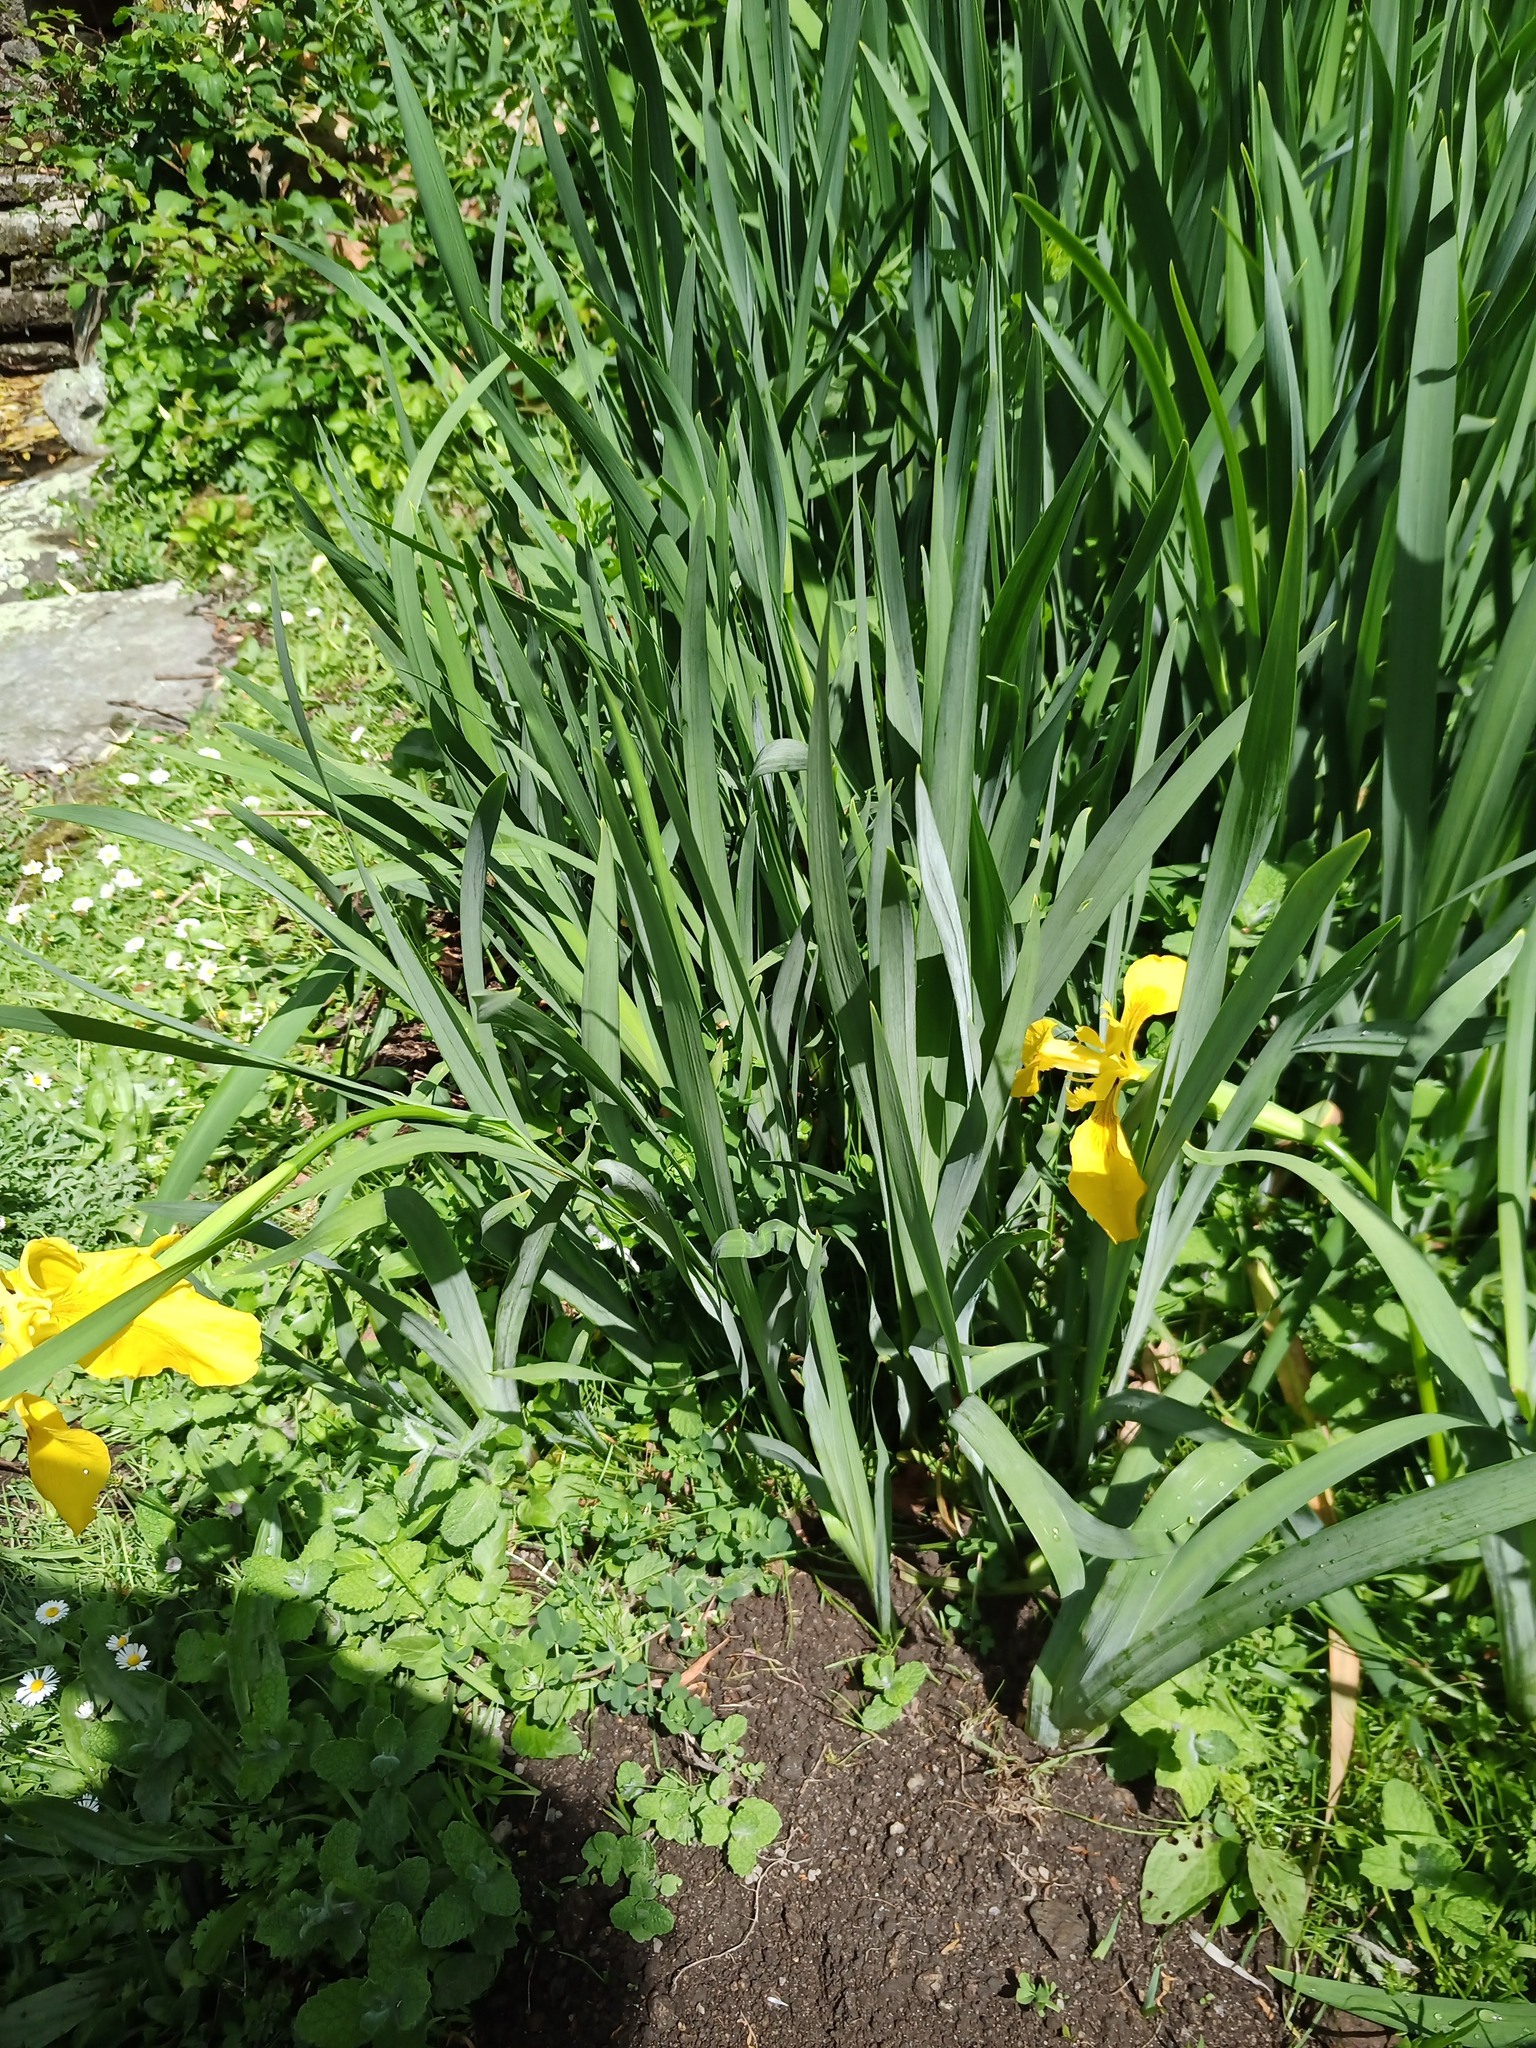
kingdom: Plantae
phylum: Tracheophyta
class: Liliopsida
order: Asparagales
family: Iridaceae
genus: Iris
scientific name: Iris pseudacorus
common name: Yellow flag
